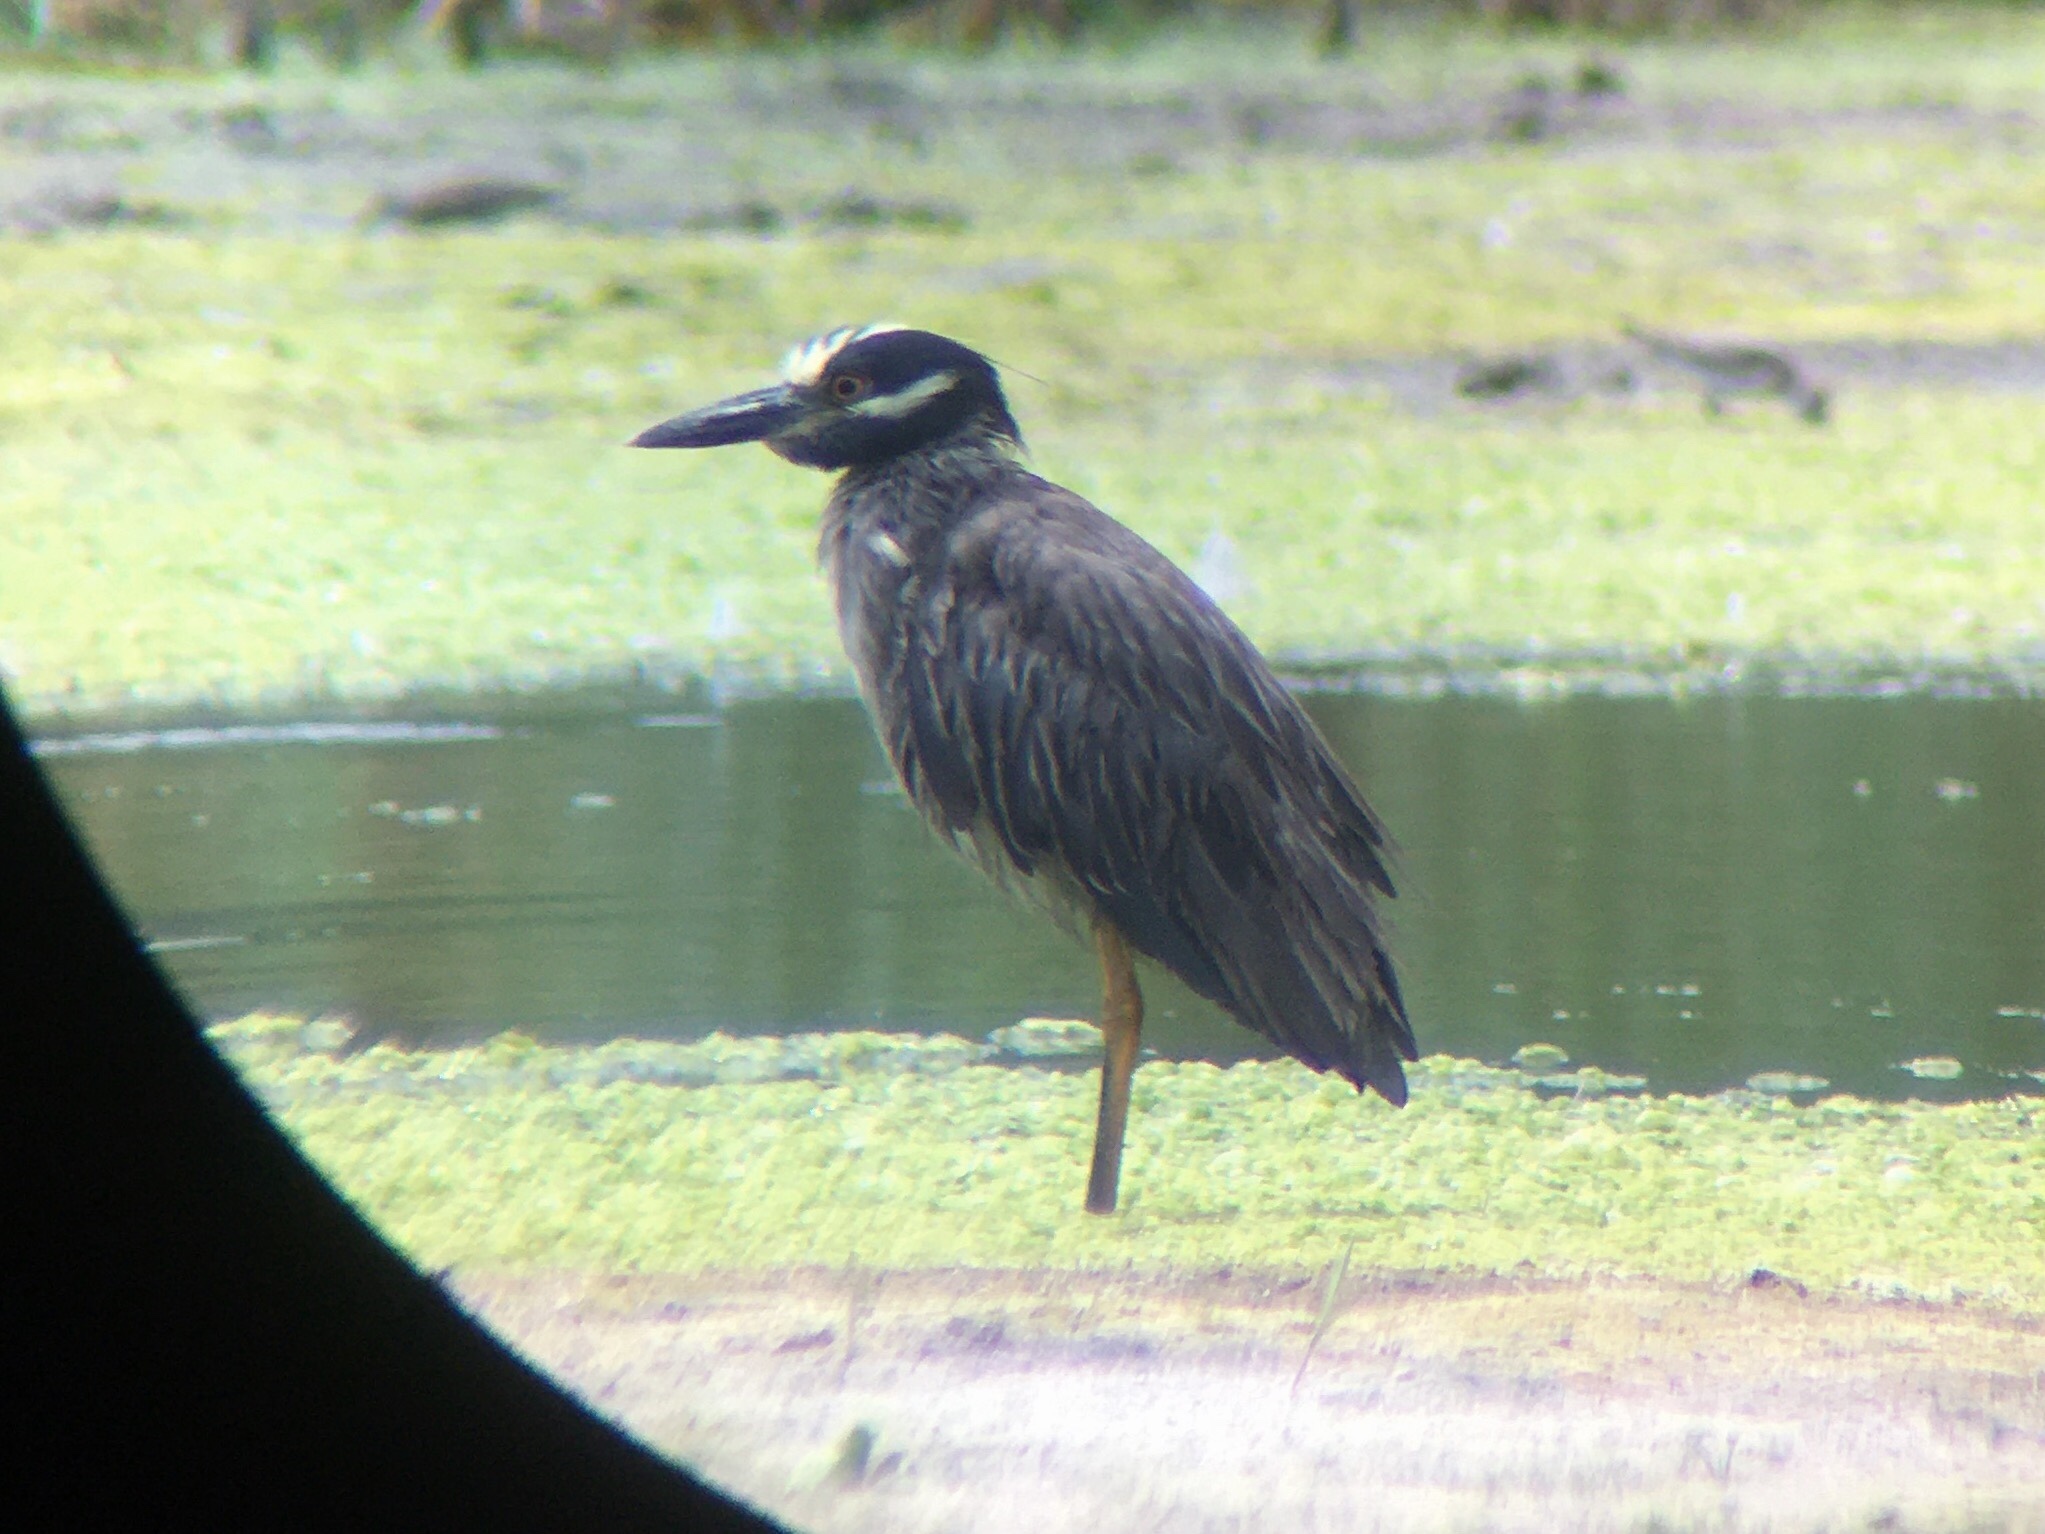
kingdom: Animalia
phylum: Chordata
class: Aves
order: Pelecaniformes
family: Ardeidae
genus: Nyctanassa
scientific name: Nyctanassa violacea
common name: Yellow-crowned night heron
